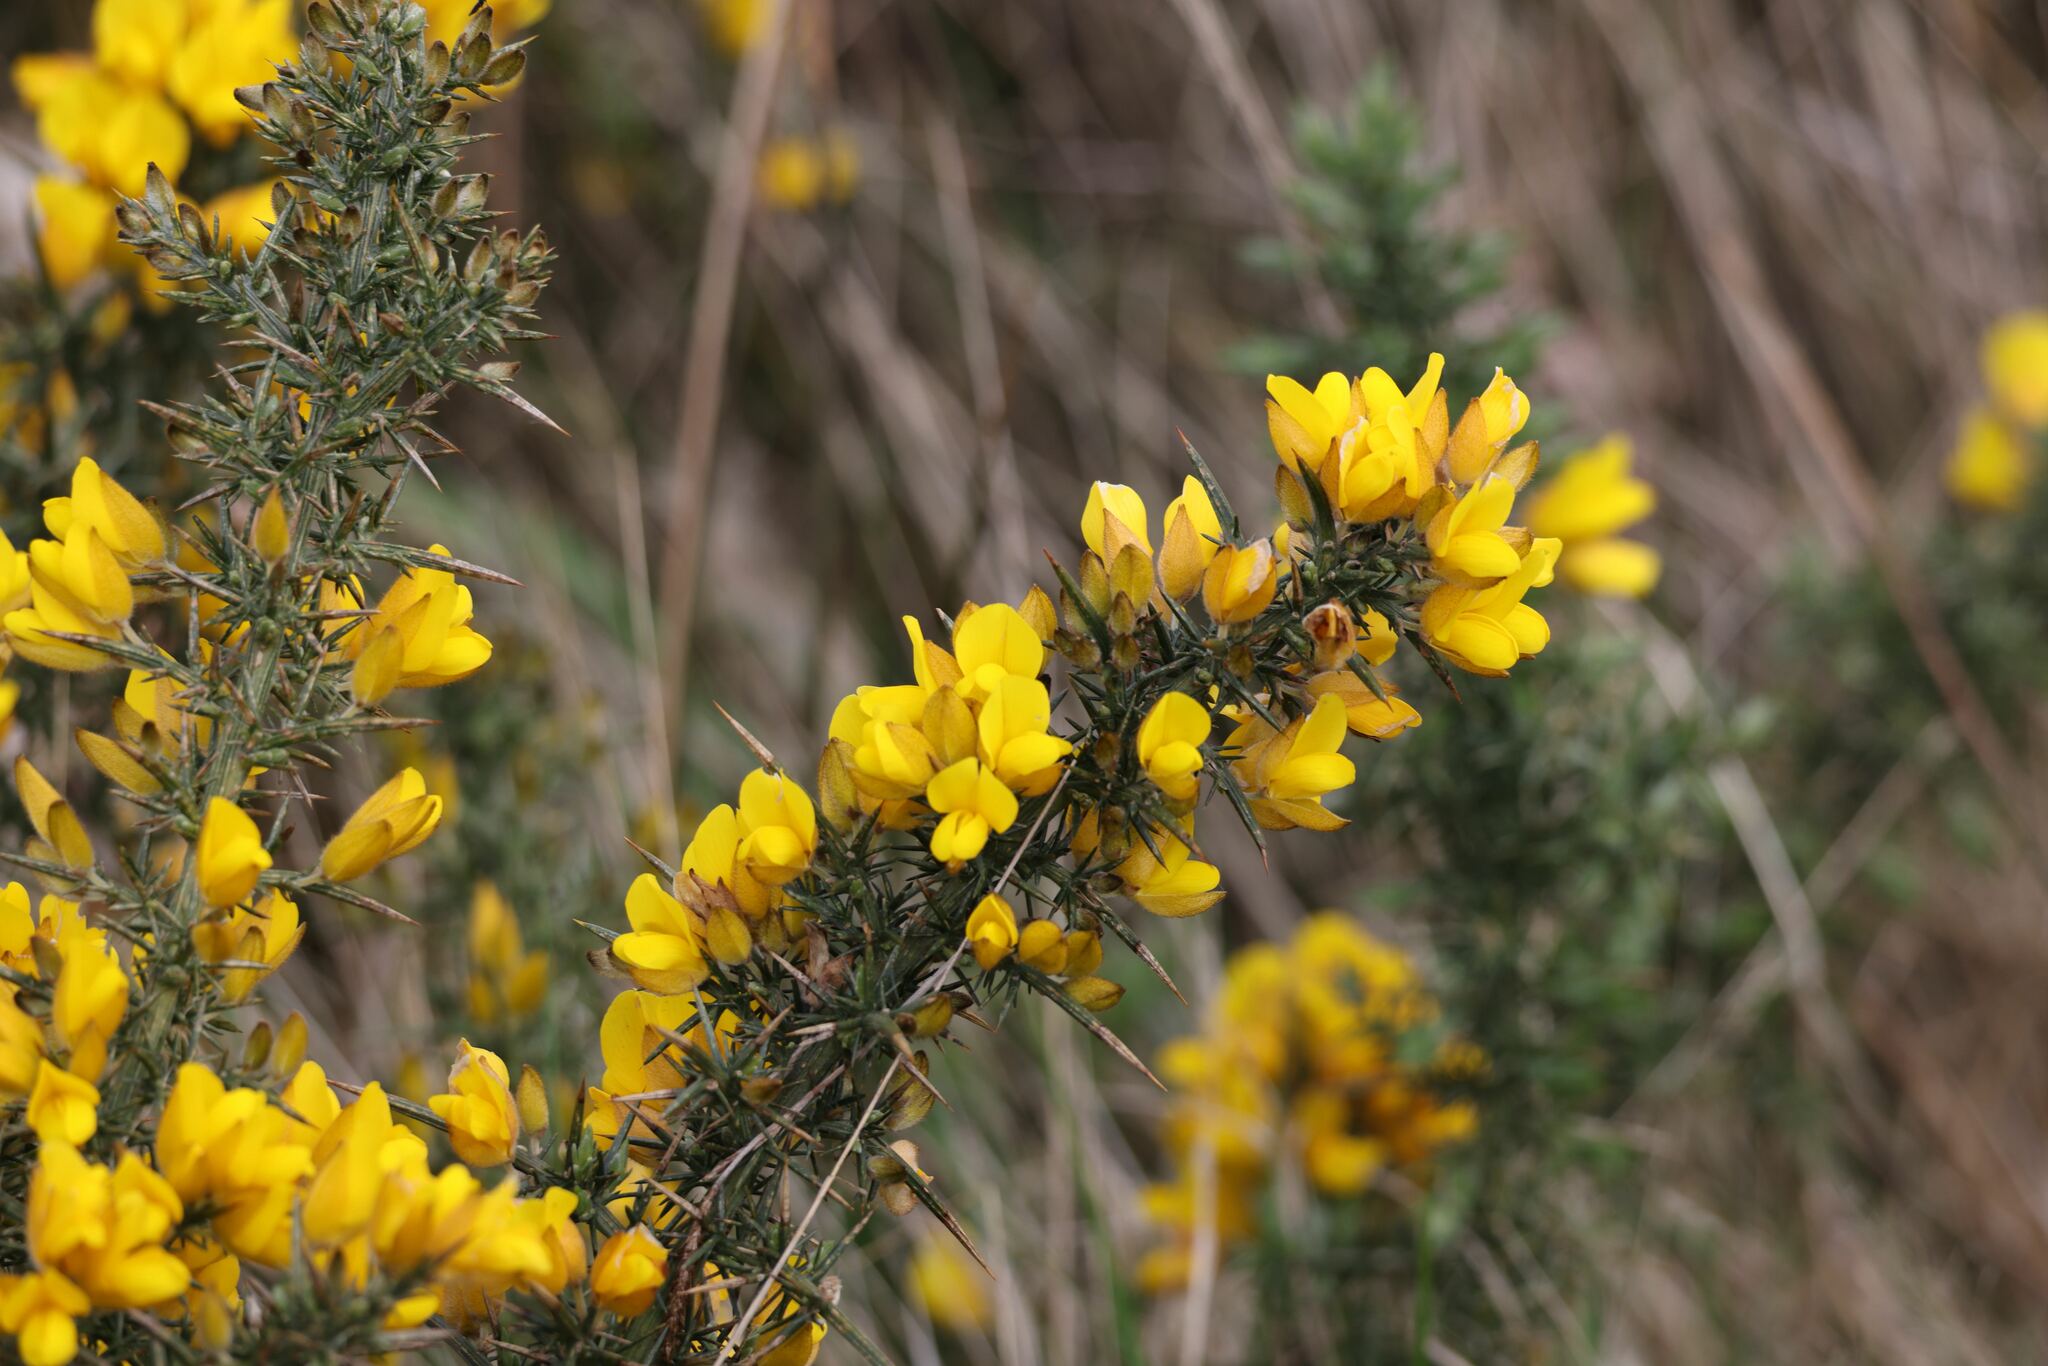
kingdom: Plantae
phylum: Tracheophyta
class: Magnoliopsida
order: Fabales
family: Fabaceae
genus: Ulex
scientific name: Ulex europaeus
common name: Common gorse
